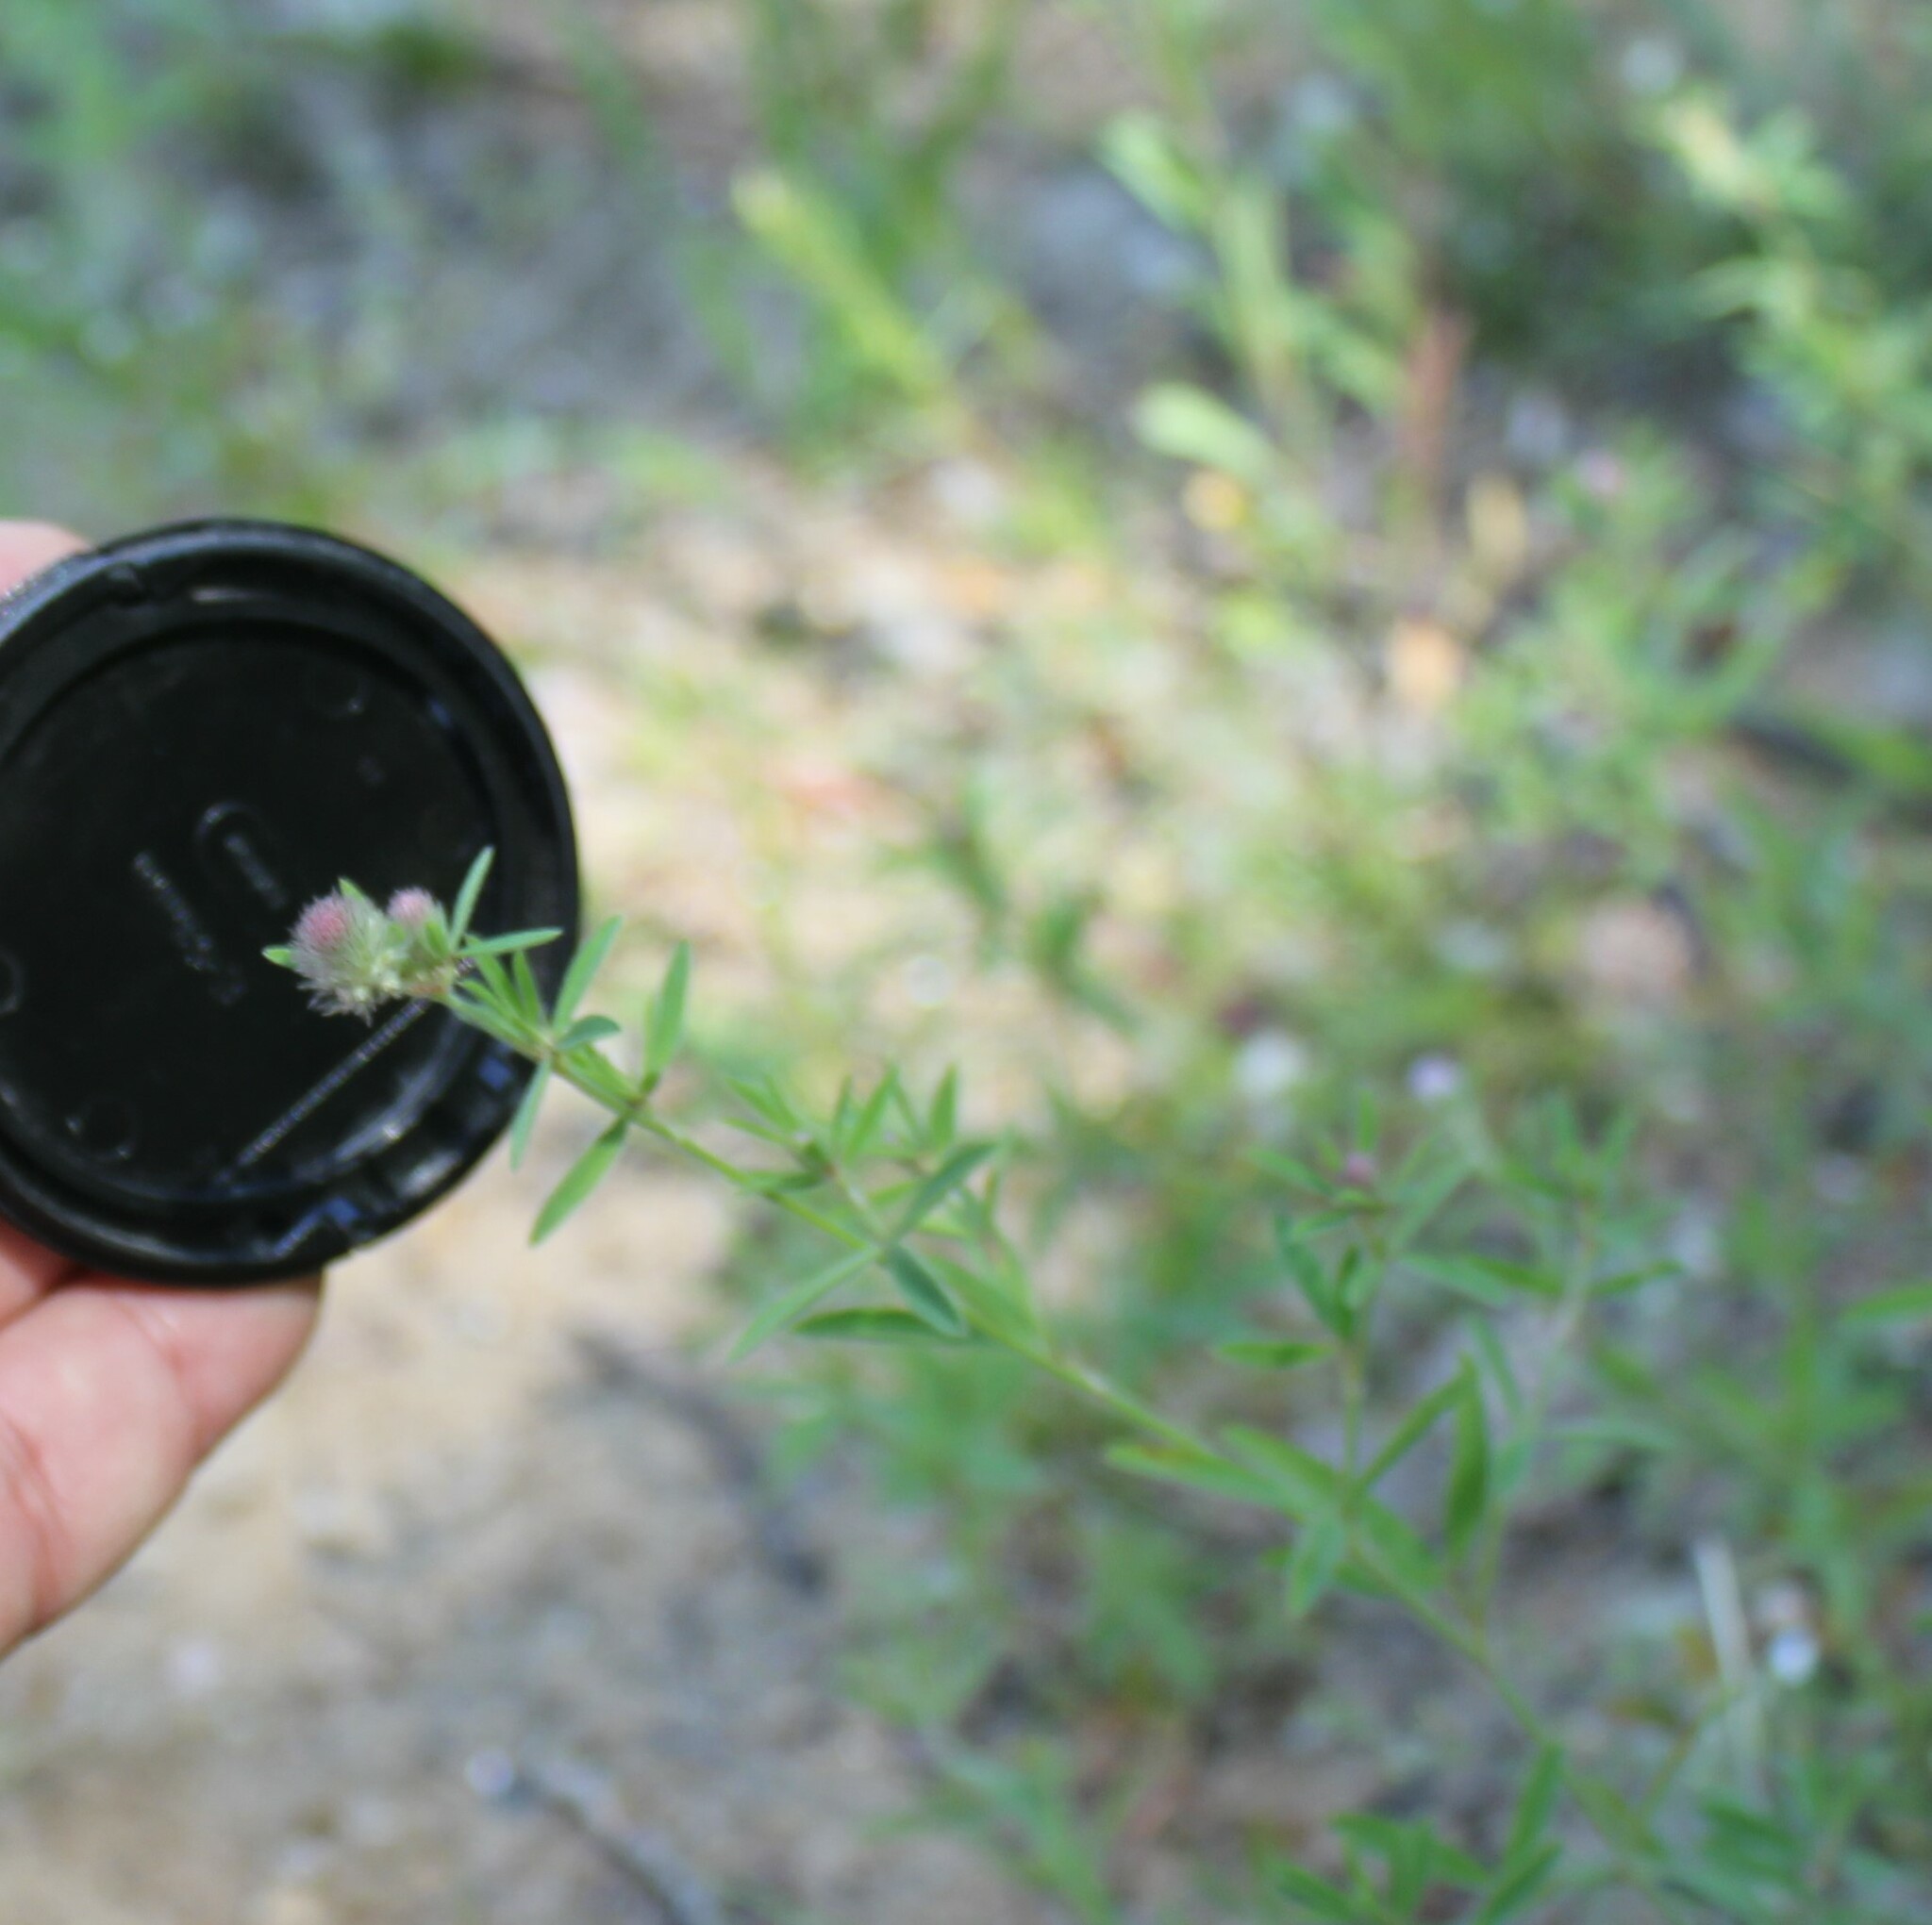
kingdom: Plantae
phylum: Tracheophyta
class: Magnoliopsida
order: Fabales
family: Fabaceae
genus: Trifolium
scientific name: Trifolium arvense
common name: Hare's-foot clover
